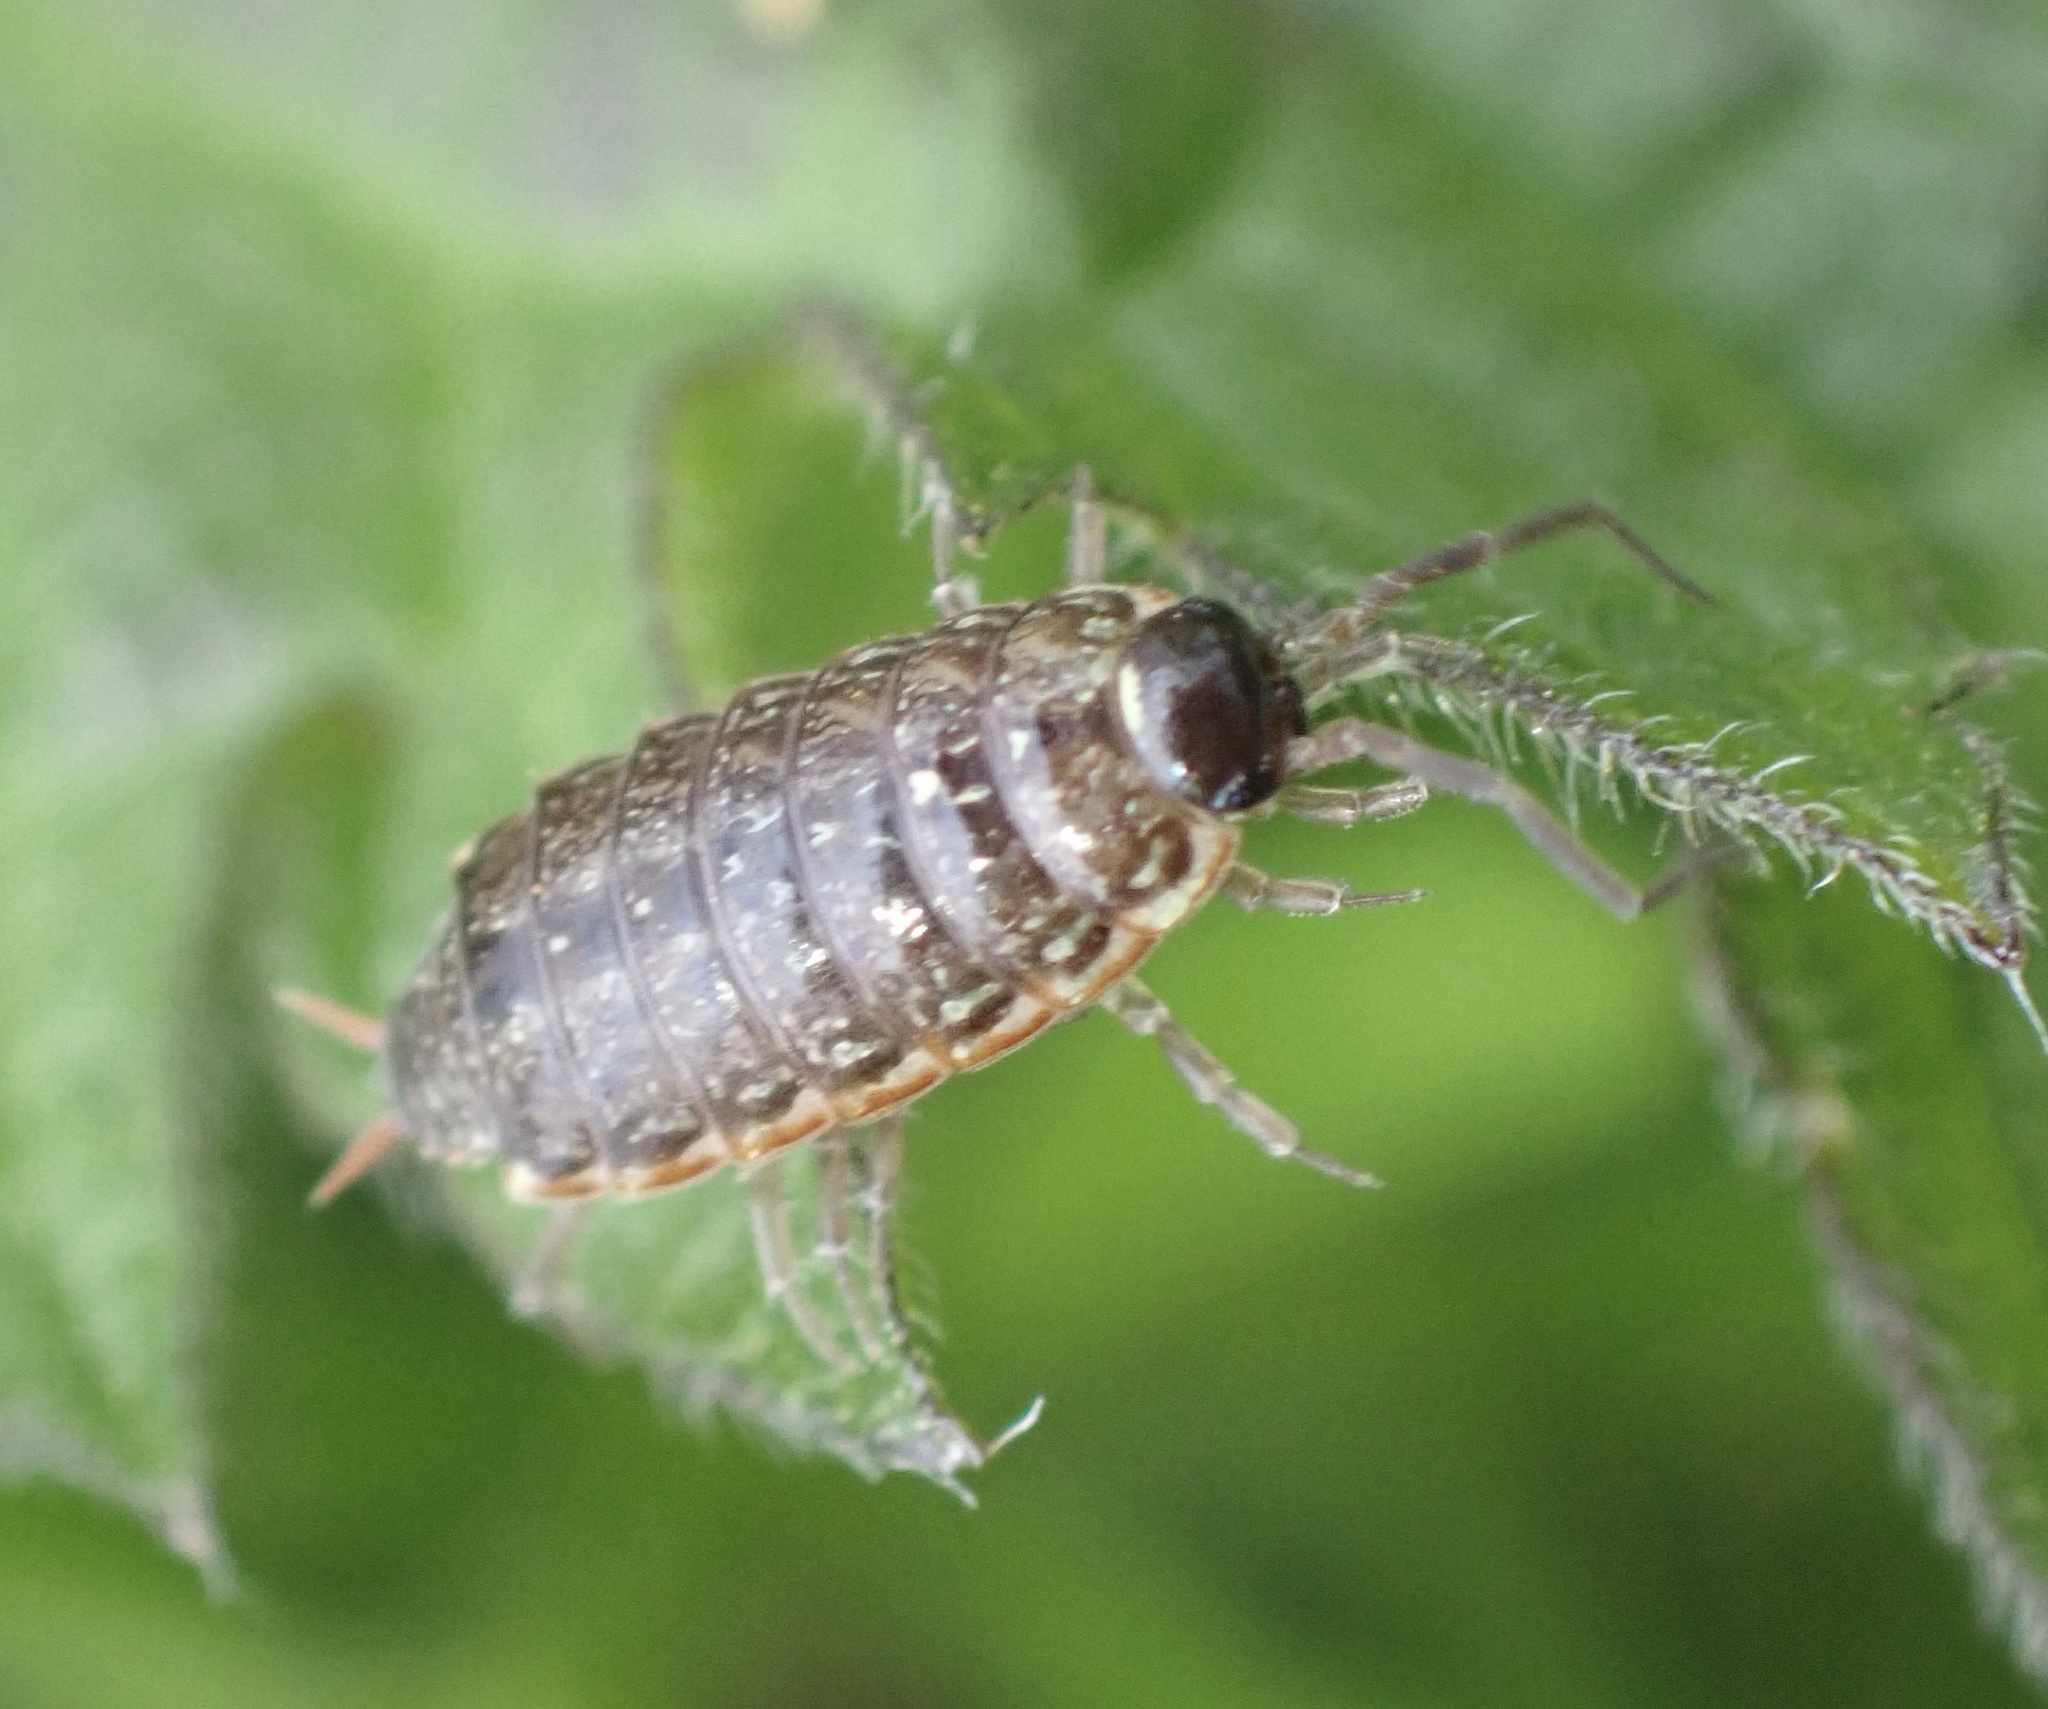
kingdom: Animalia
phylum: Arthropoda
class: Malacostraca
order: Isopoda
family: Philosciidae
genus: Philoscia
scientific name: Philoscia muscorum
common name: Common striped woodlouse
